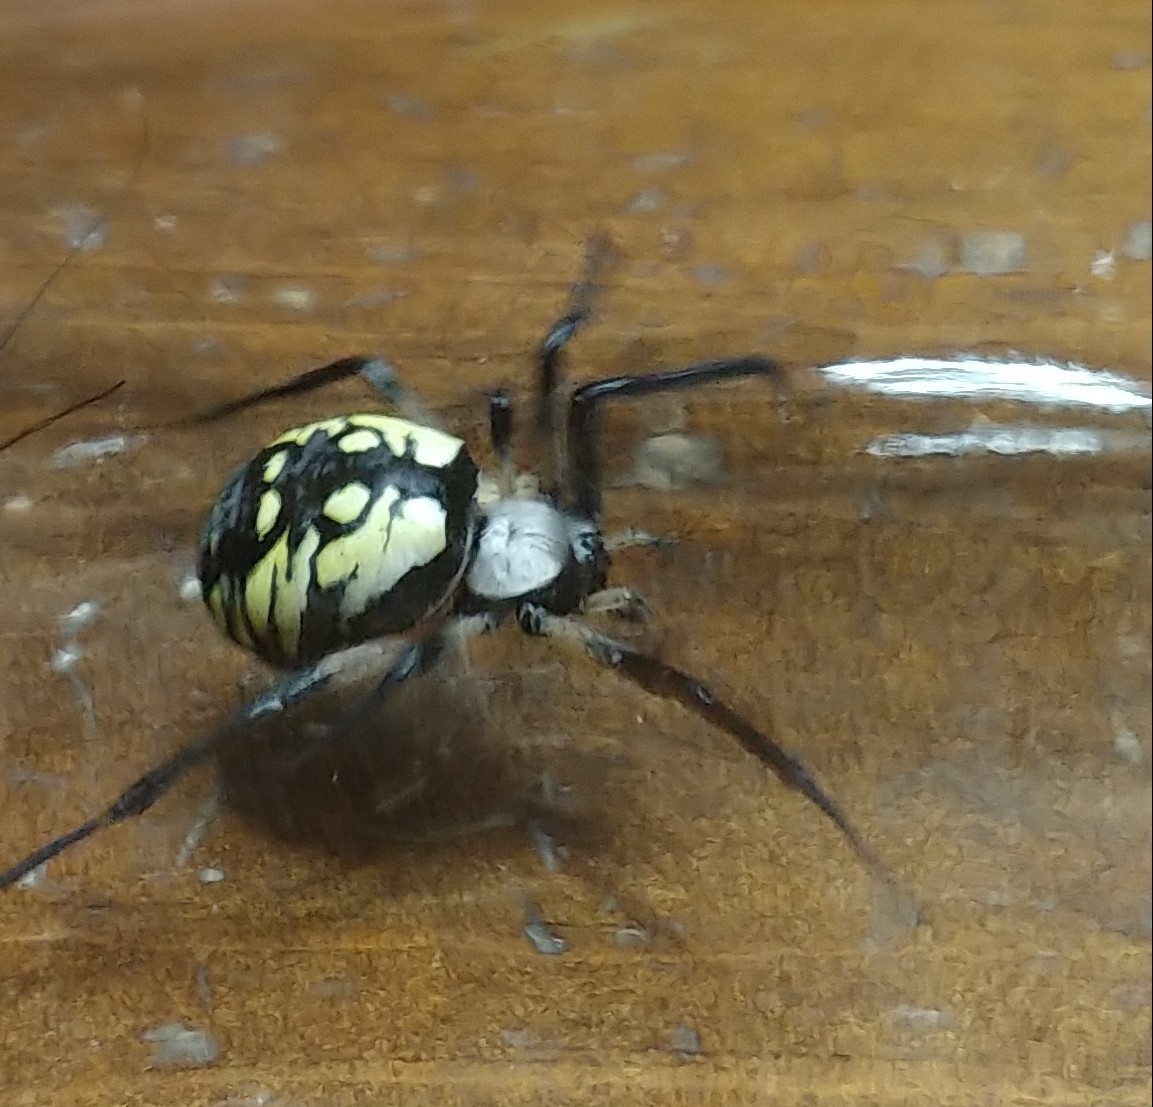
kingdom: Animalia
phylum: Arthropoda
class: Arachnida
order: Araneae
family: Araneidae
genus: Argiope
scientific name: Argiope aurantia
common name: Orb weavers
